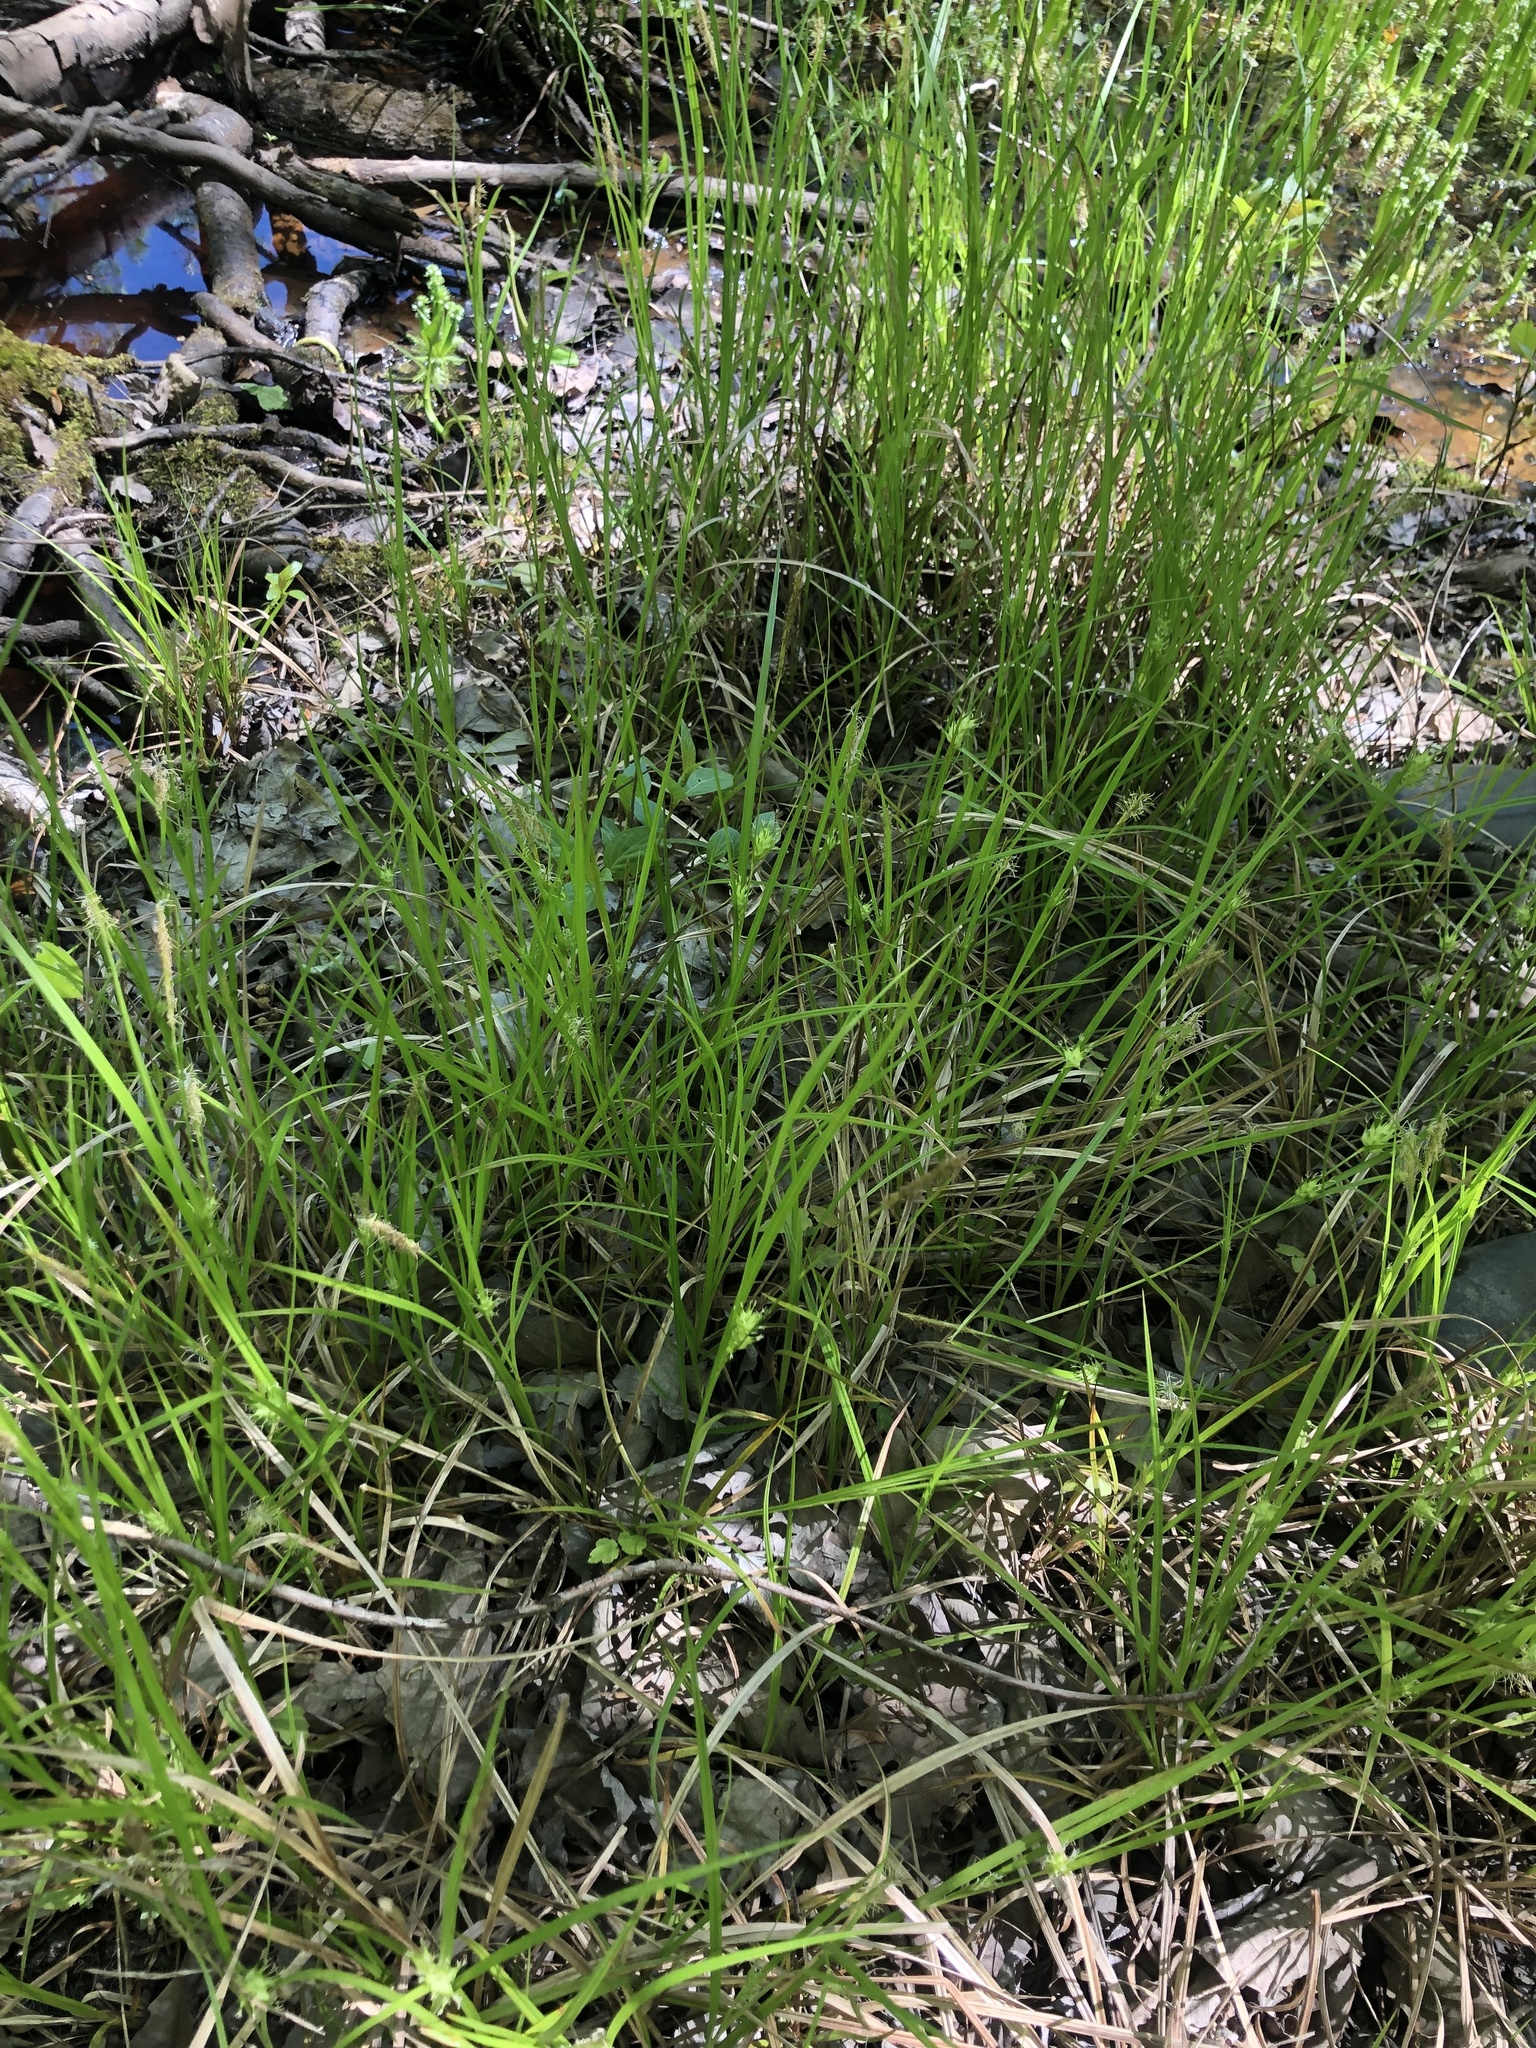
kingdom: Plantae
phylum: Tracheophyta
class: Liliopsida
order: Poales
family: Cyperaceae
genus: Carex
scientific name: Carex louisianica
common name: Louisiana sedge
